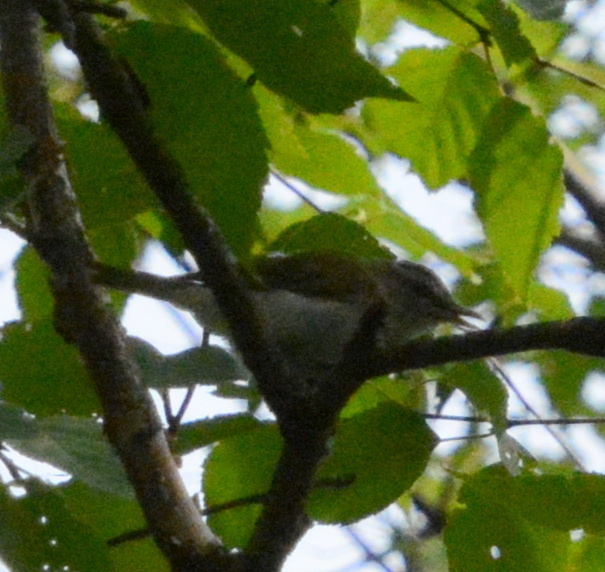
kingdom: Animalia
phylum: Chordata
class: Aves
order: Passeriformes
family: Vireonidae
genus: Vireo
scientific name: Vireo olivaceus
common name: Red-eyed vireo
